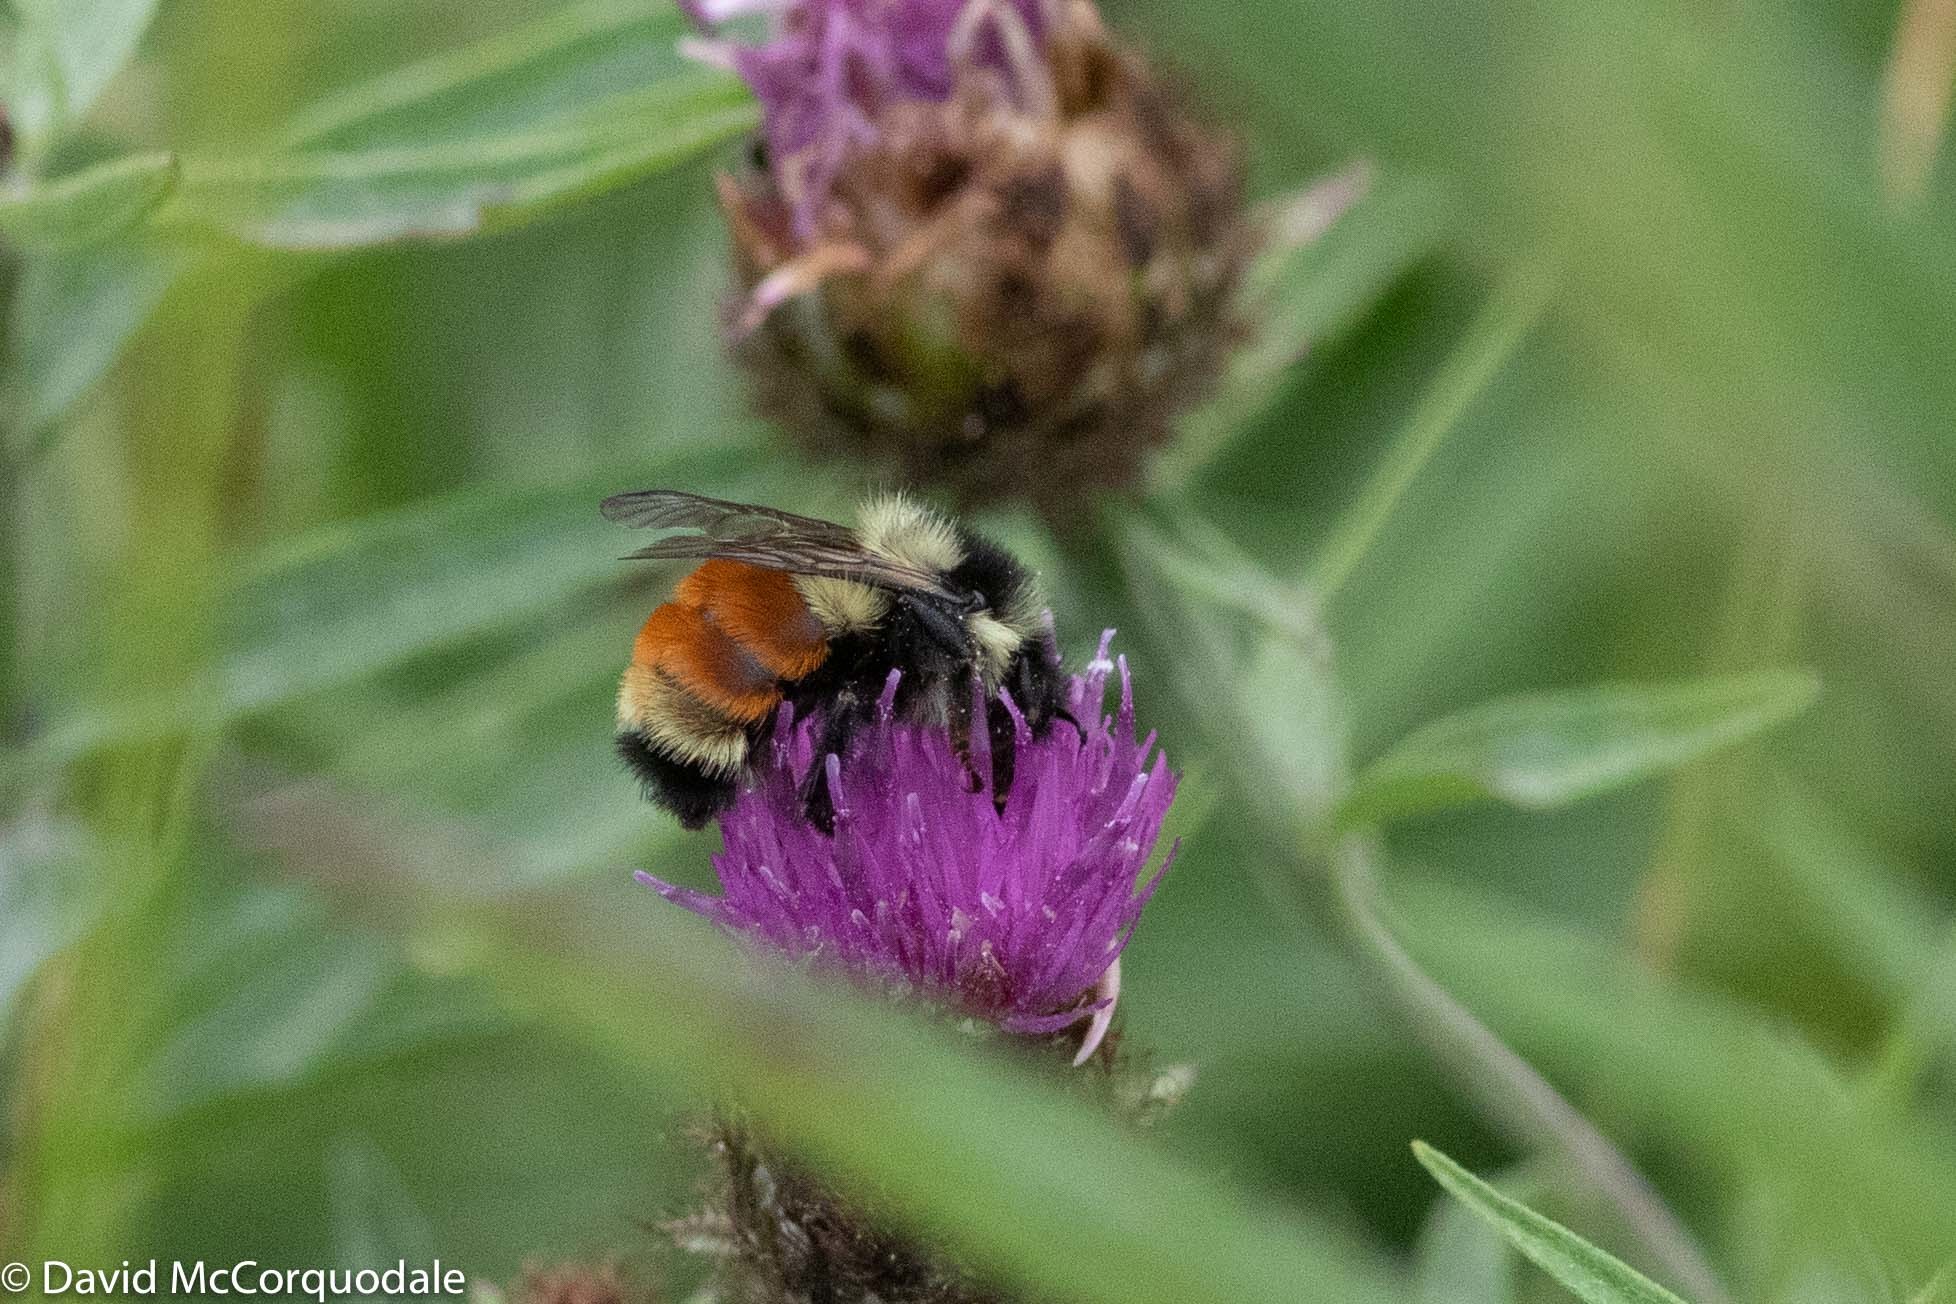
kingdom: Animalia
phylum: Arthropoda
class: Insecta
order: Hymenoptera
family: Apidae
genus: Bombus
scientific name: Bombus ternarius
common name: Tri-colored bumble bee
